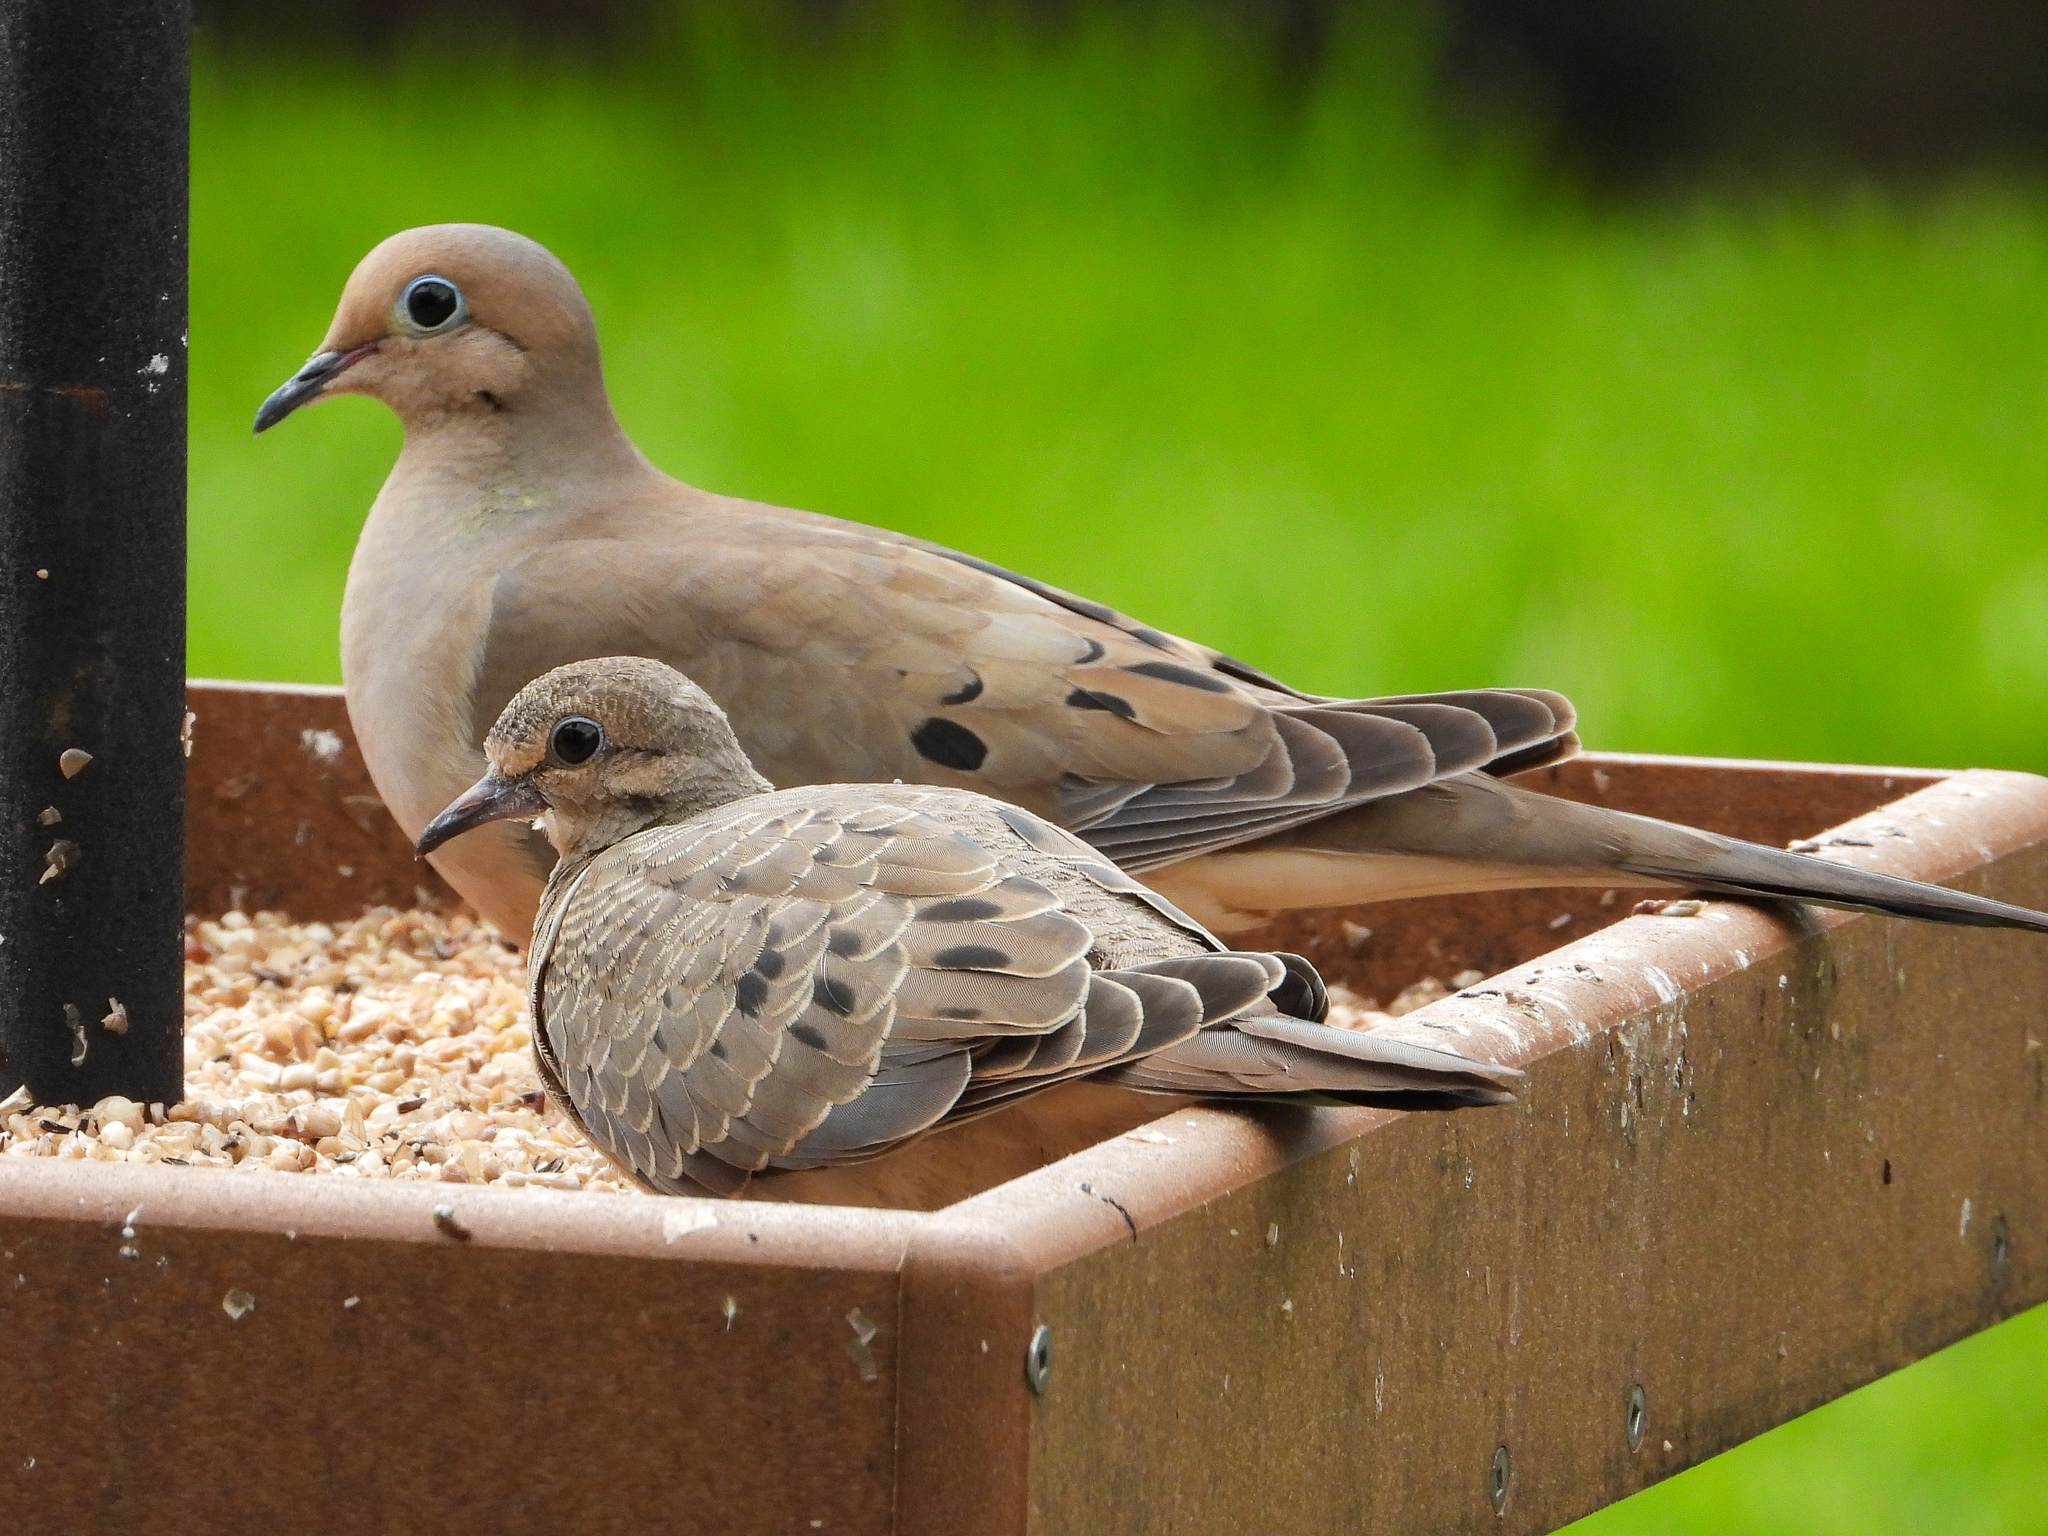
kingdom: Animalia
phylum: Chordata
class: Aves
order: Columbiformes
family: Columbidae
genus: Zenaida
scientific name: Zenaida macroura
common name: Mourning dove
